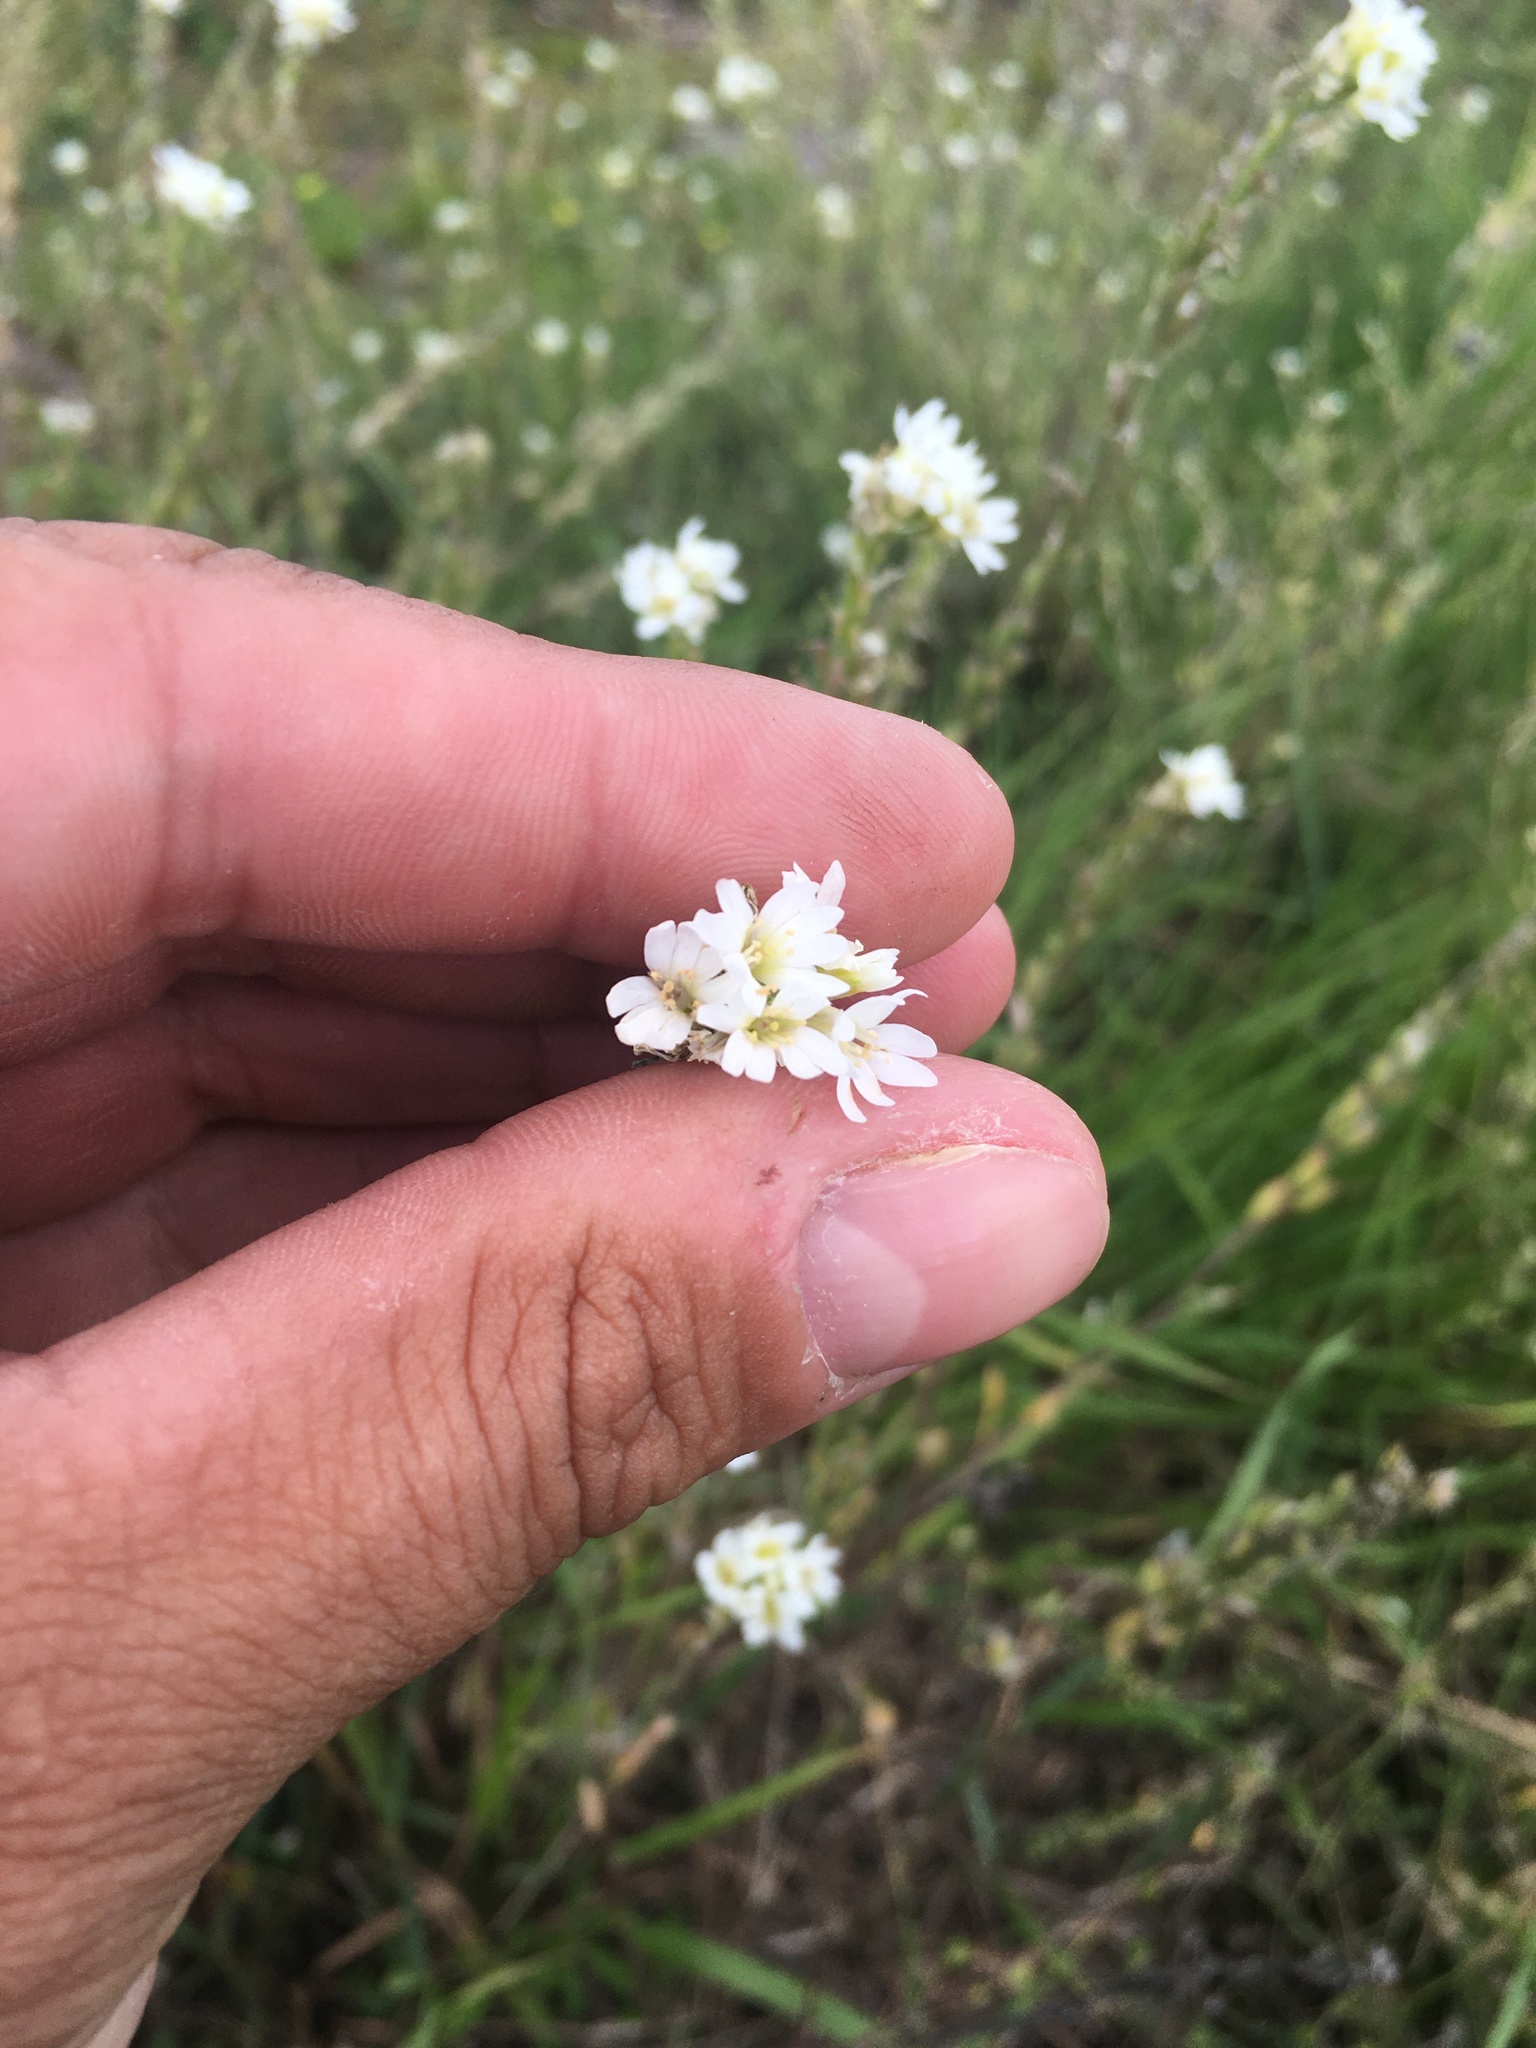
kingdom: Plantae
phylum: Tracheophyta
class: Magnoliopsida
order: Brassicales
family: Brassicaceae
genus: Berteroa
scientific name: Berteroa incana
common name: Hoary alison
